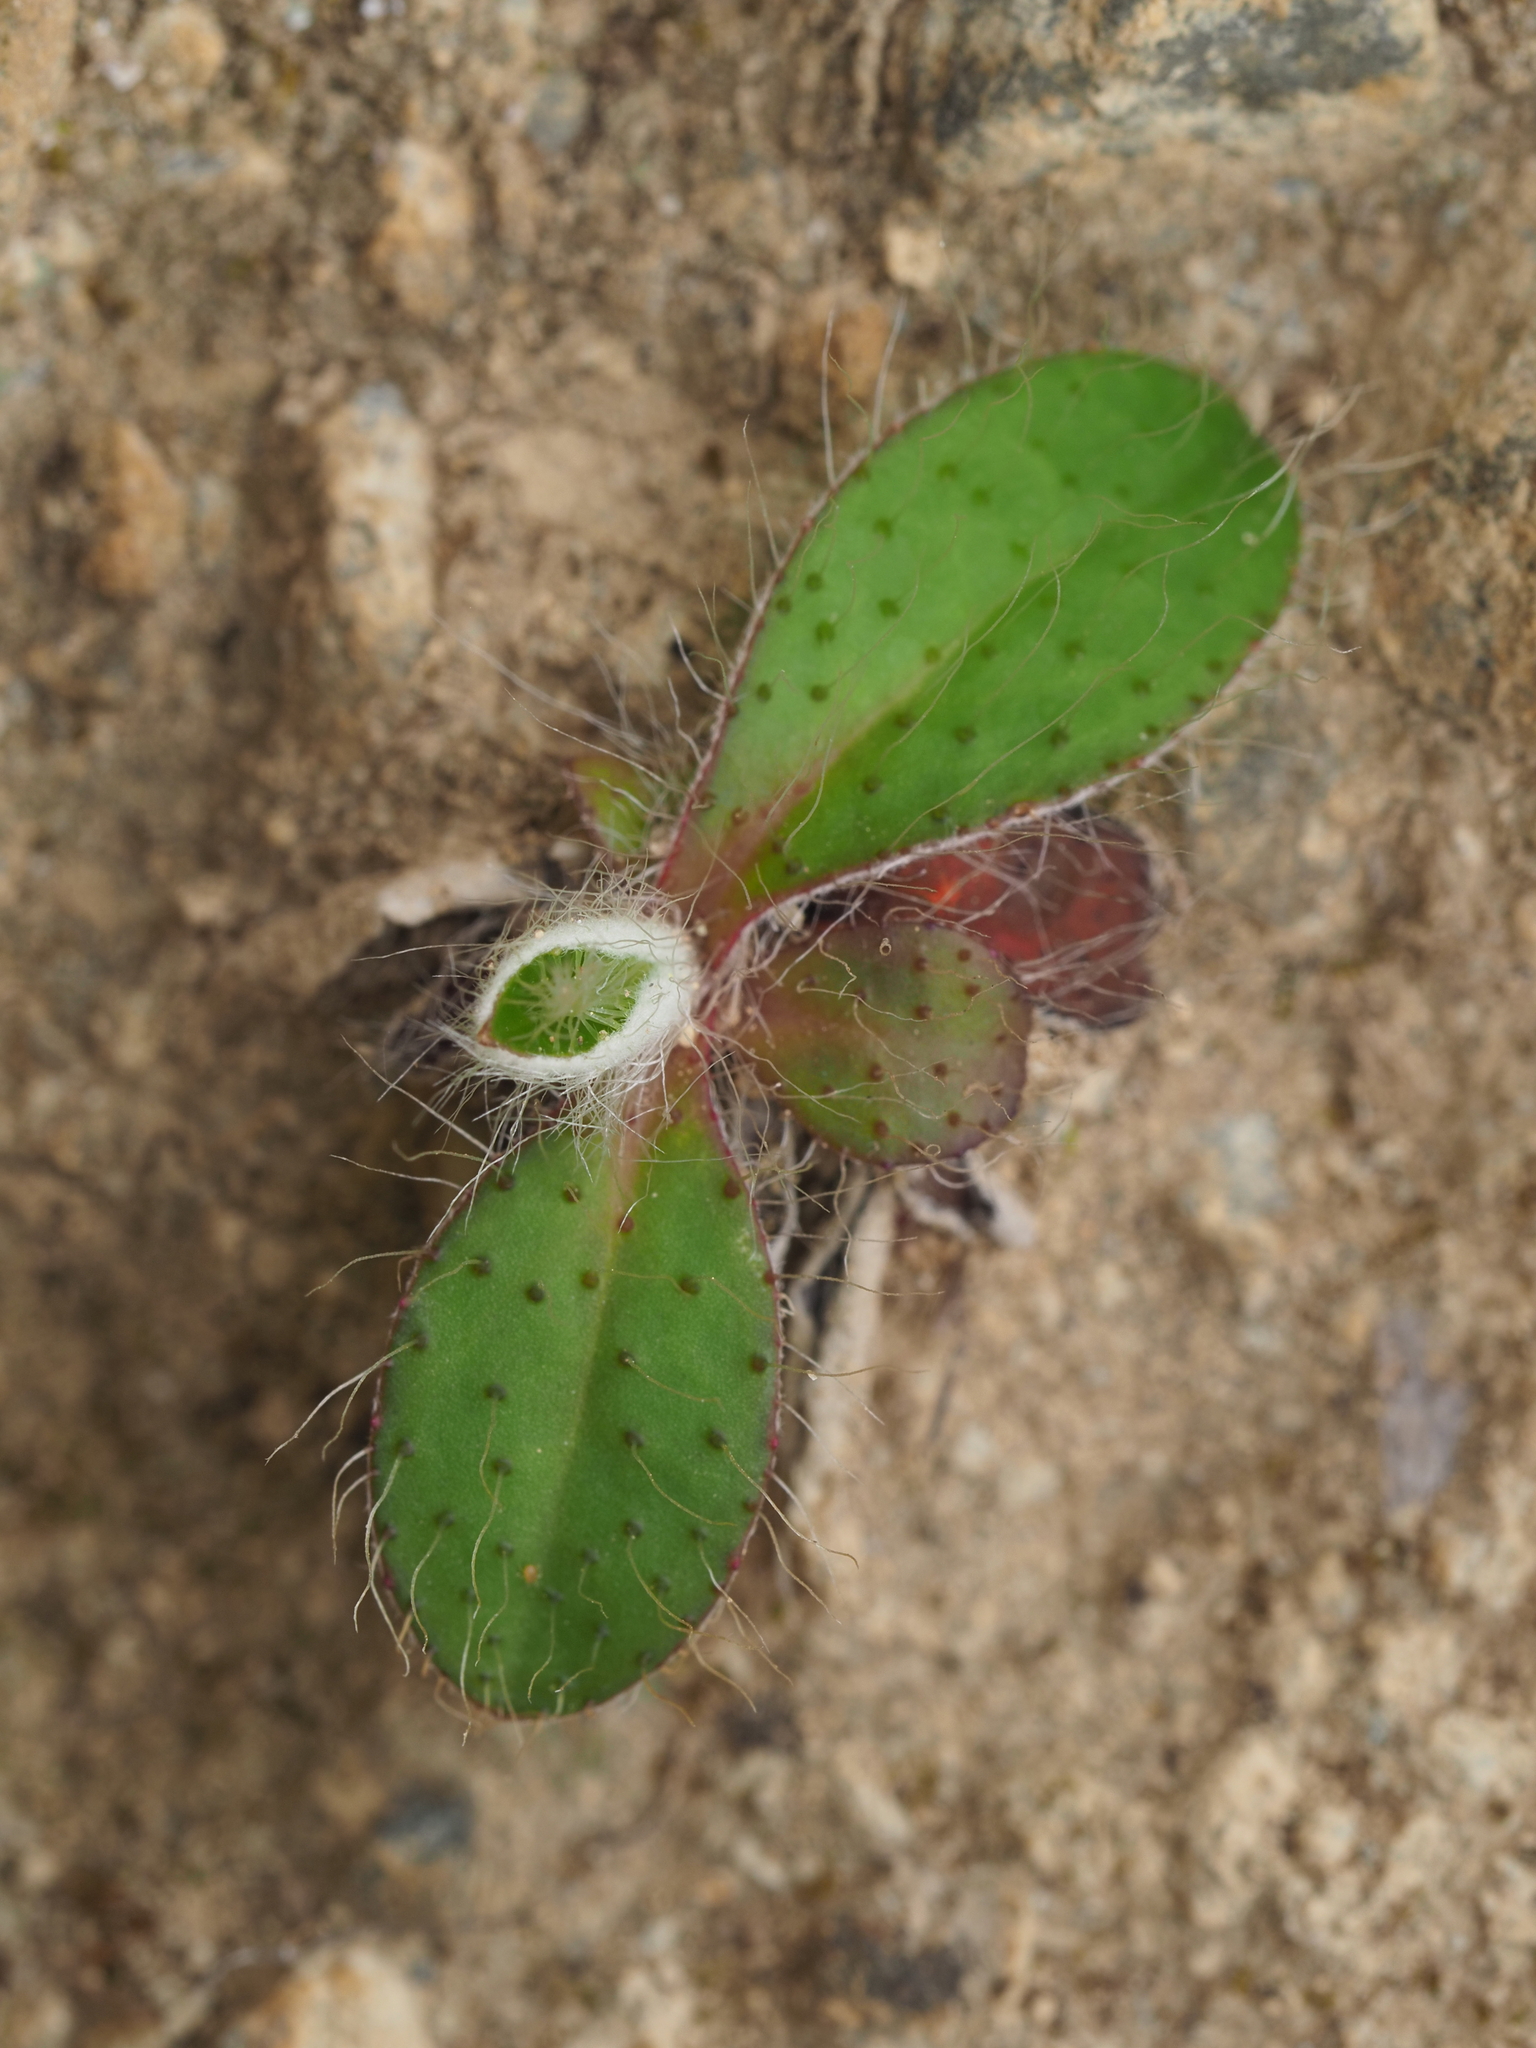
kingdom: Plantae
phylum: Tracheophyta
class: Magnoliopsida
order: Asterales
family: Asteraceae
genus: Pilosella
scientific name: Pilosella officinarum
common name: Mouse-ear hawkweed
